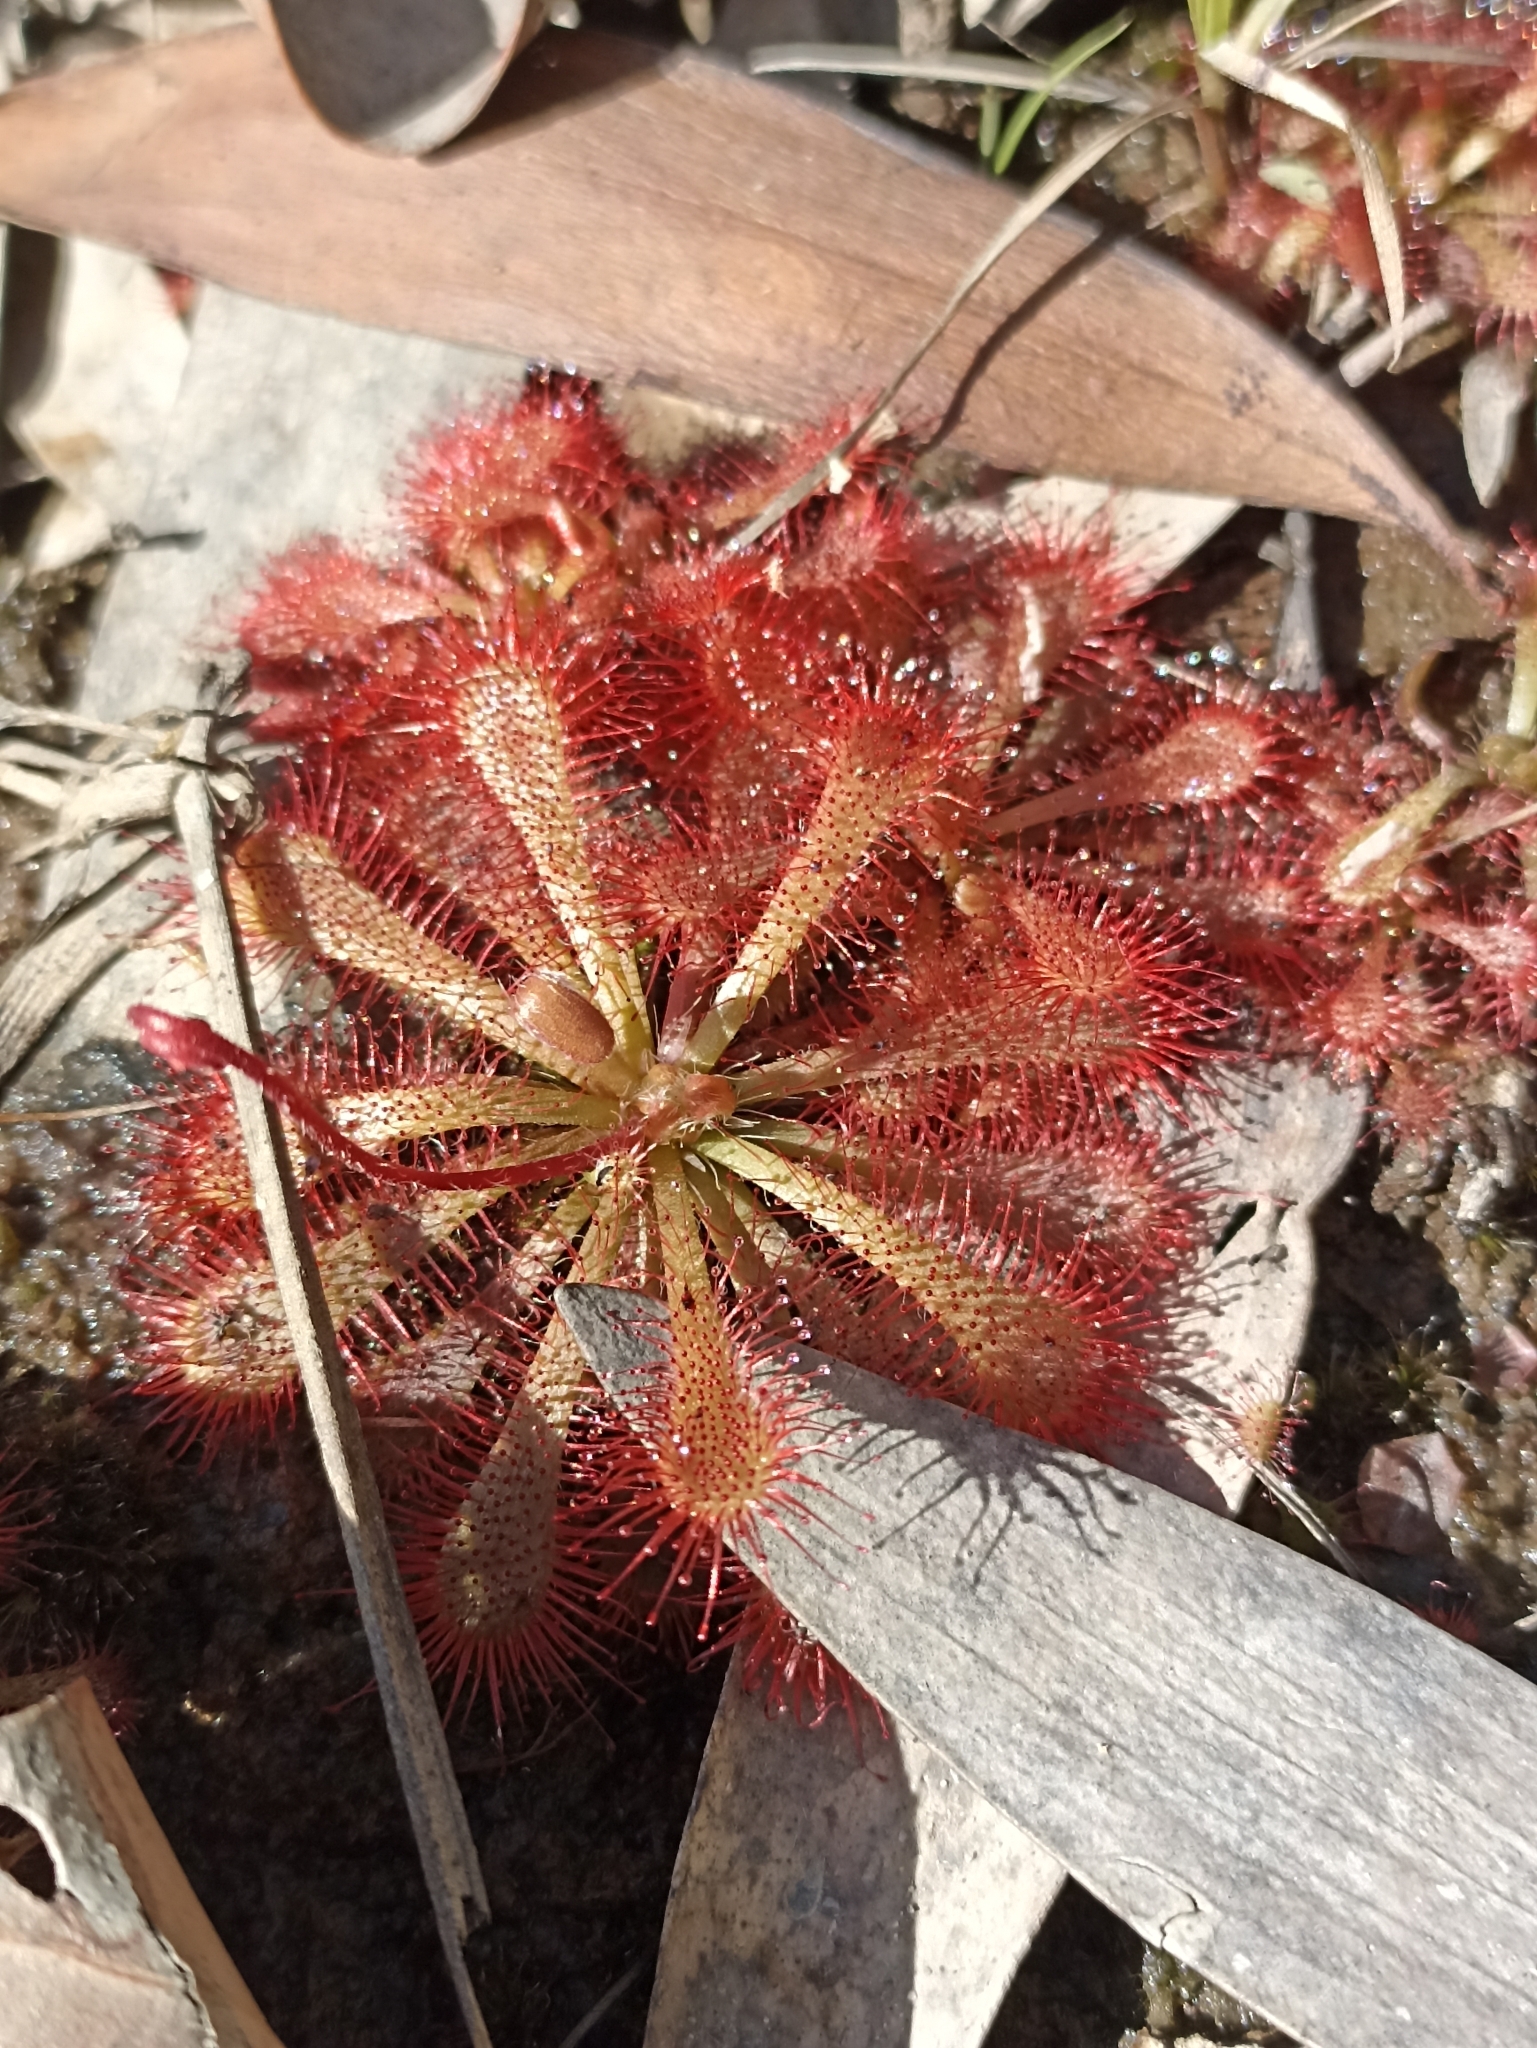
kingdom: Plantae
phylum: Tracheophyta
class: Magnoliopsida
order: Caryophyllales
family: Droseraceae
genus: Drosera
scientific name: Drosera spatulata
